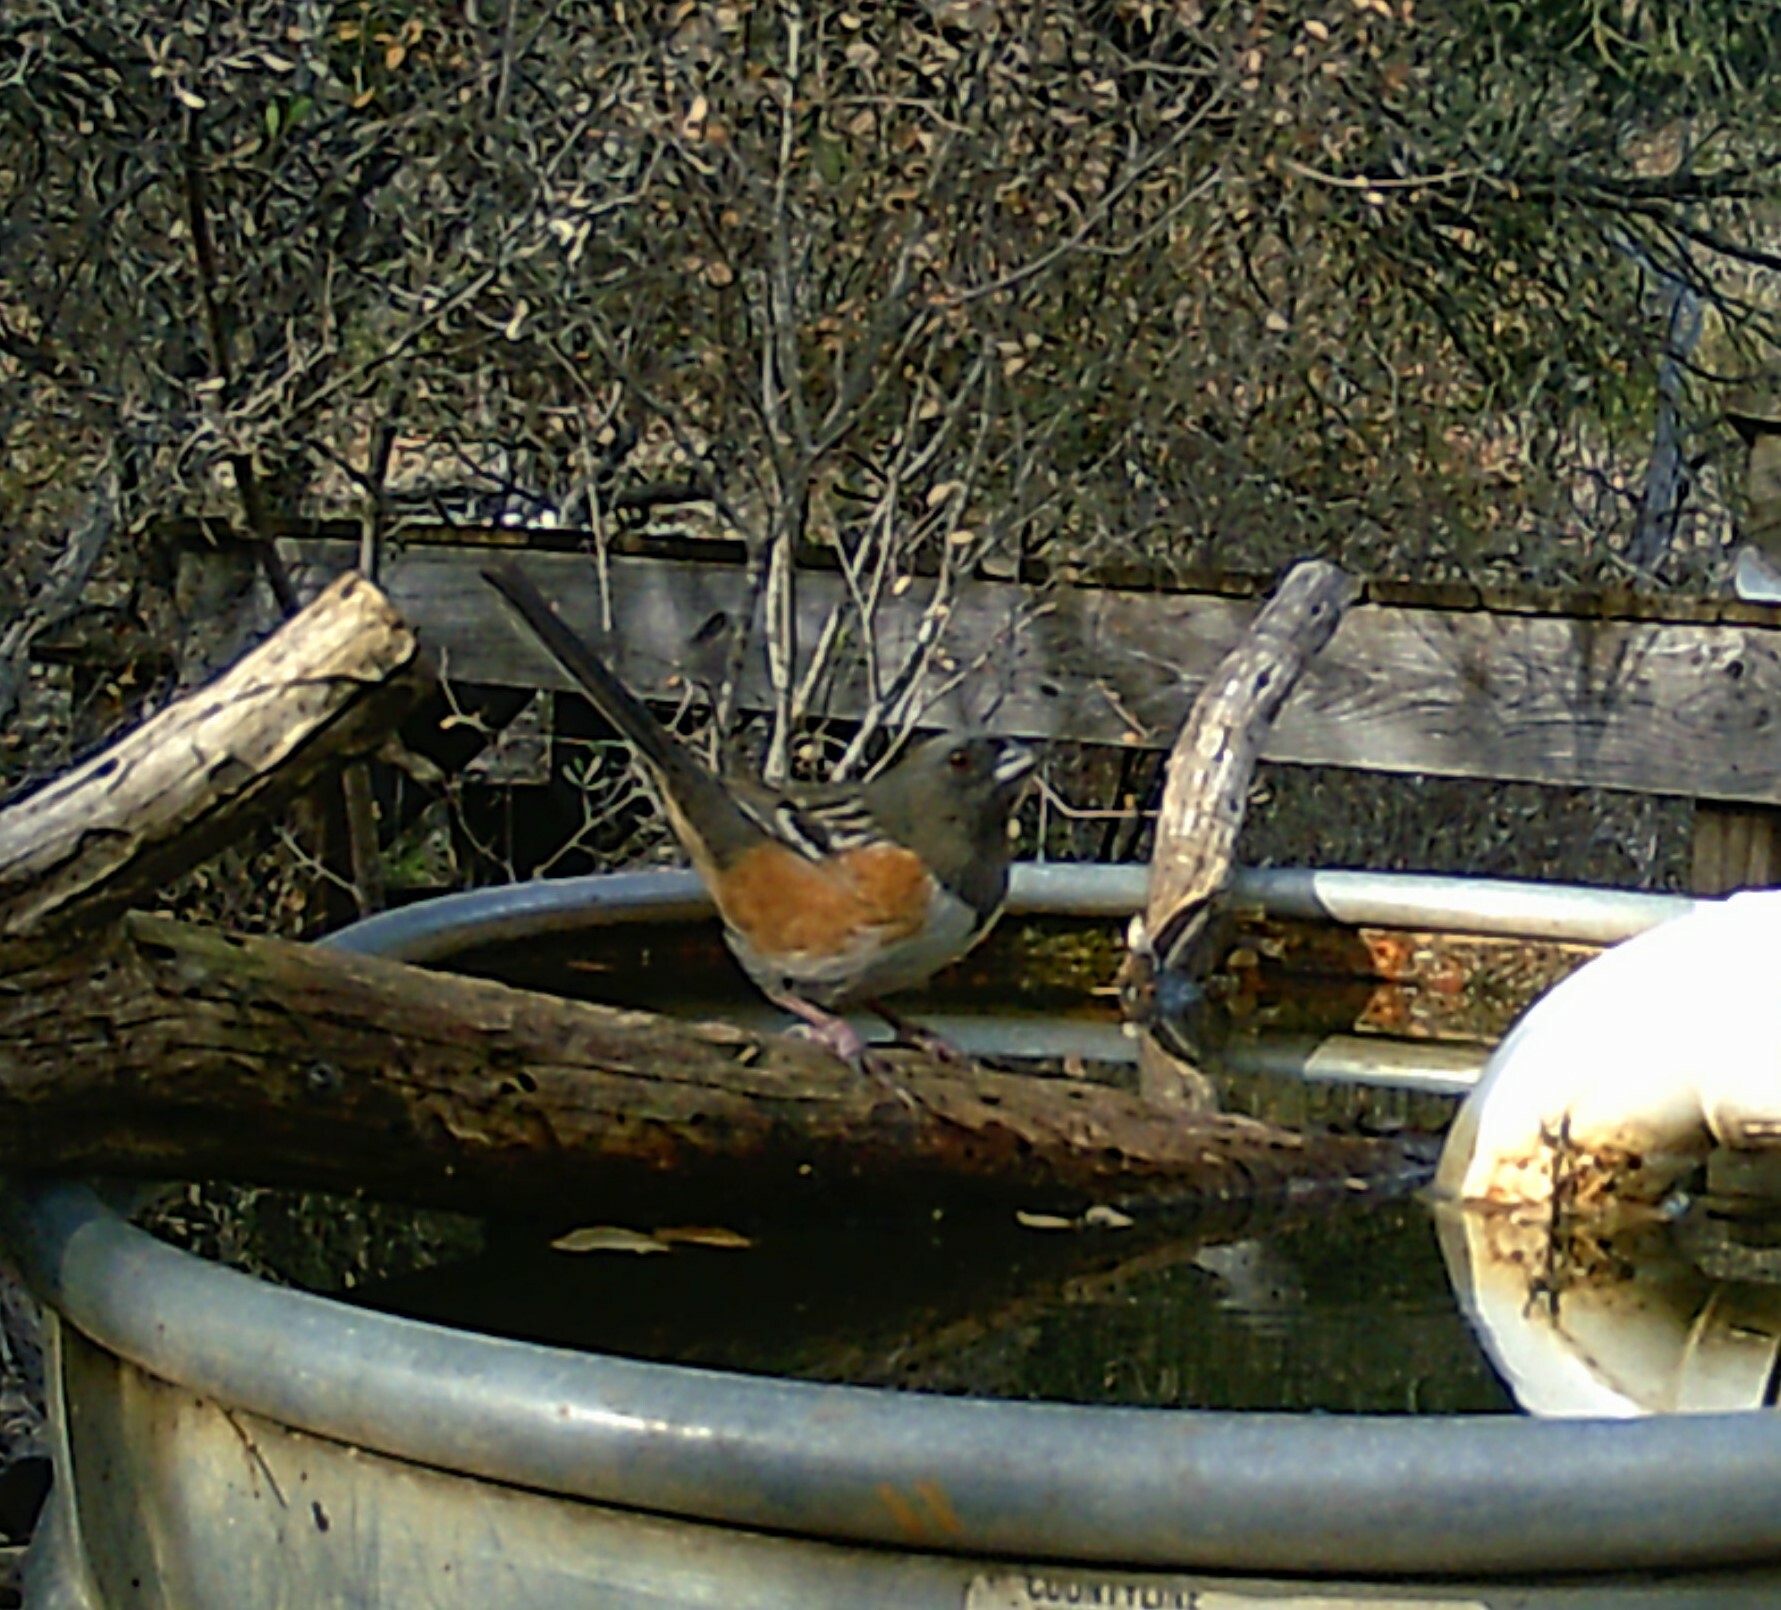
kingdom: Animalia
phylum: Chordata
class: Aves
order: Passeriformes
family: Passerellidae
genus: Pipilo
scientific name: Pipilo maculatus
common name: Spotted towhee
